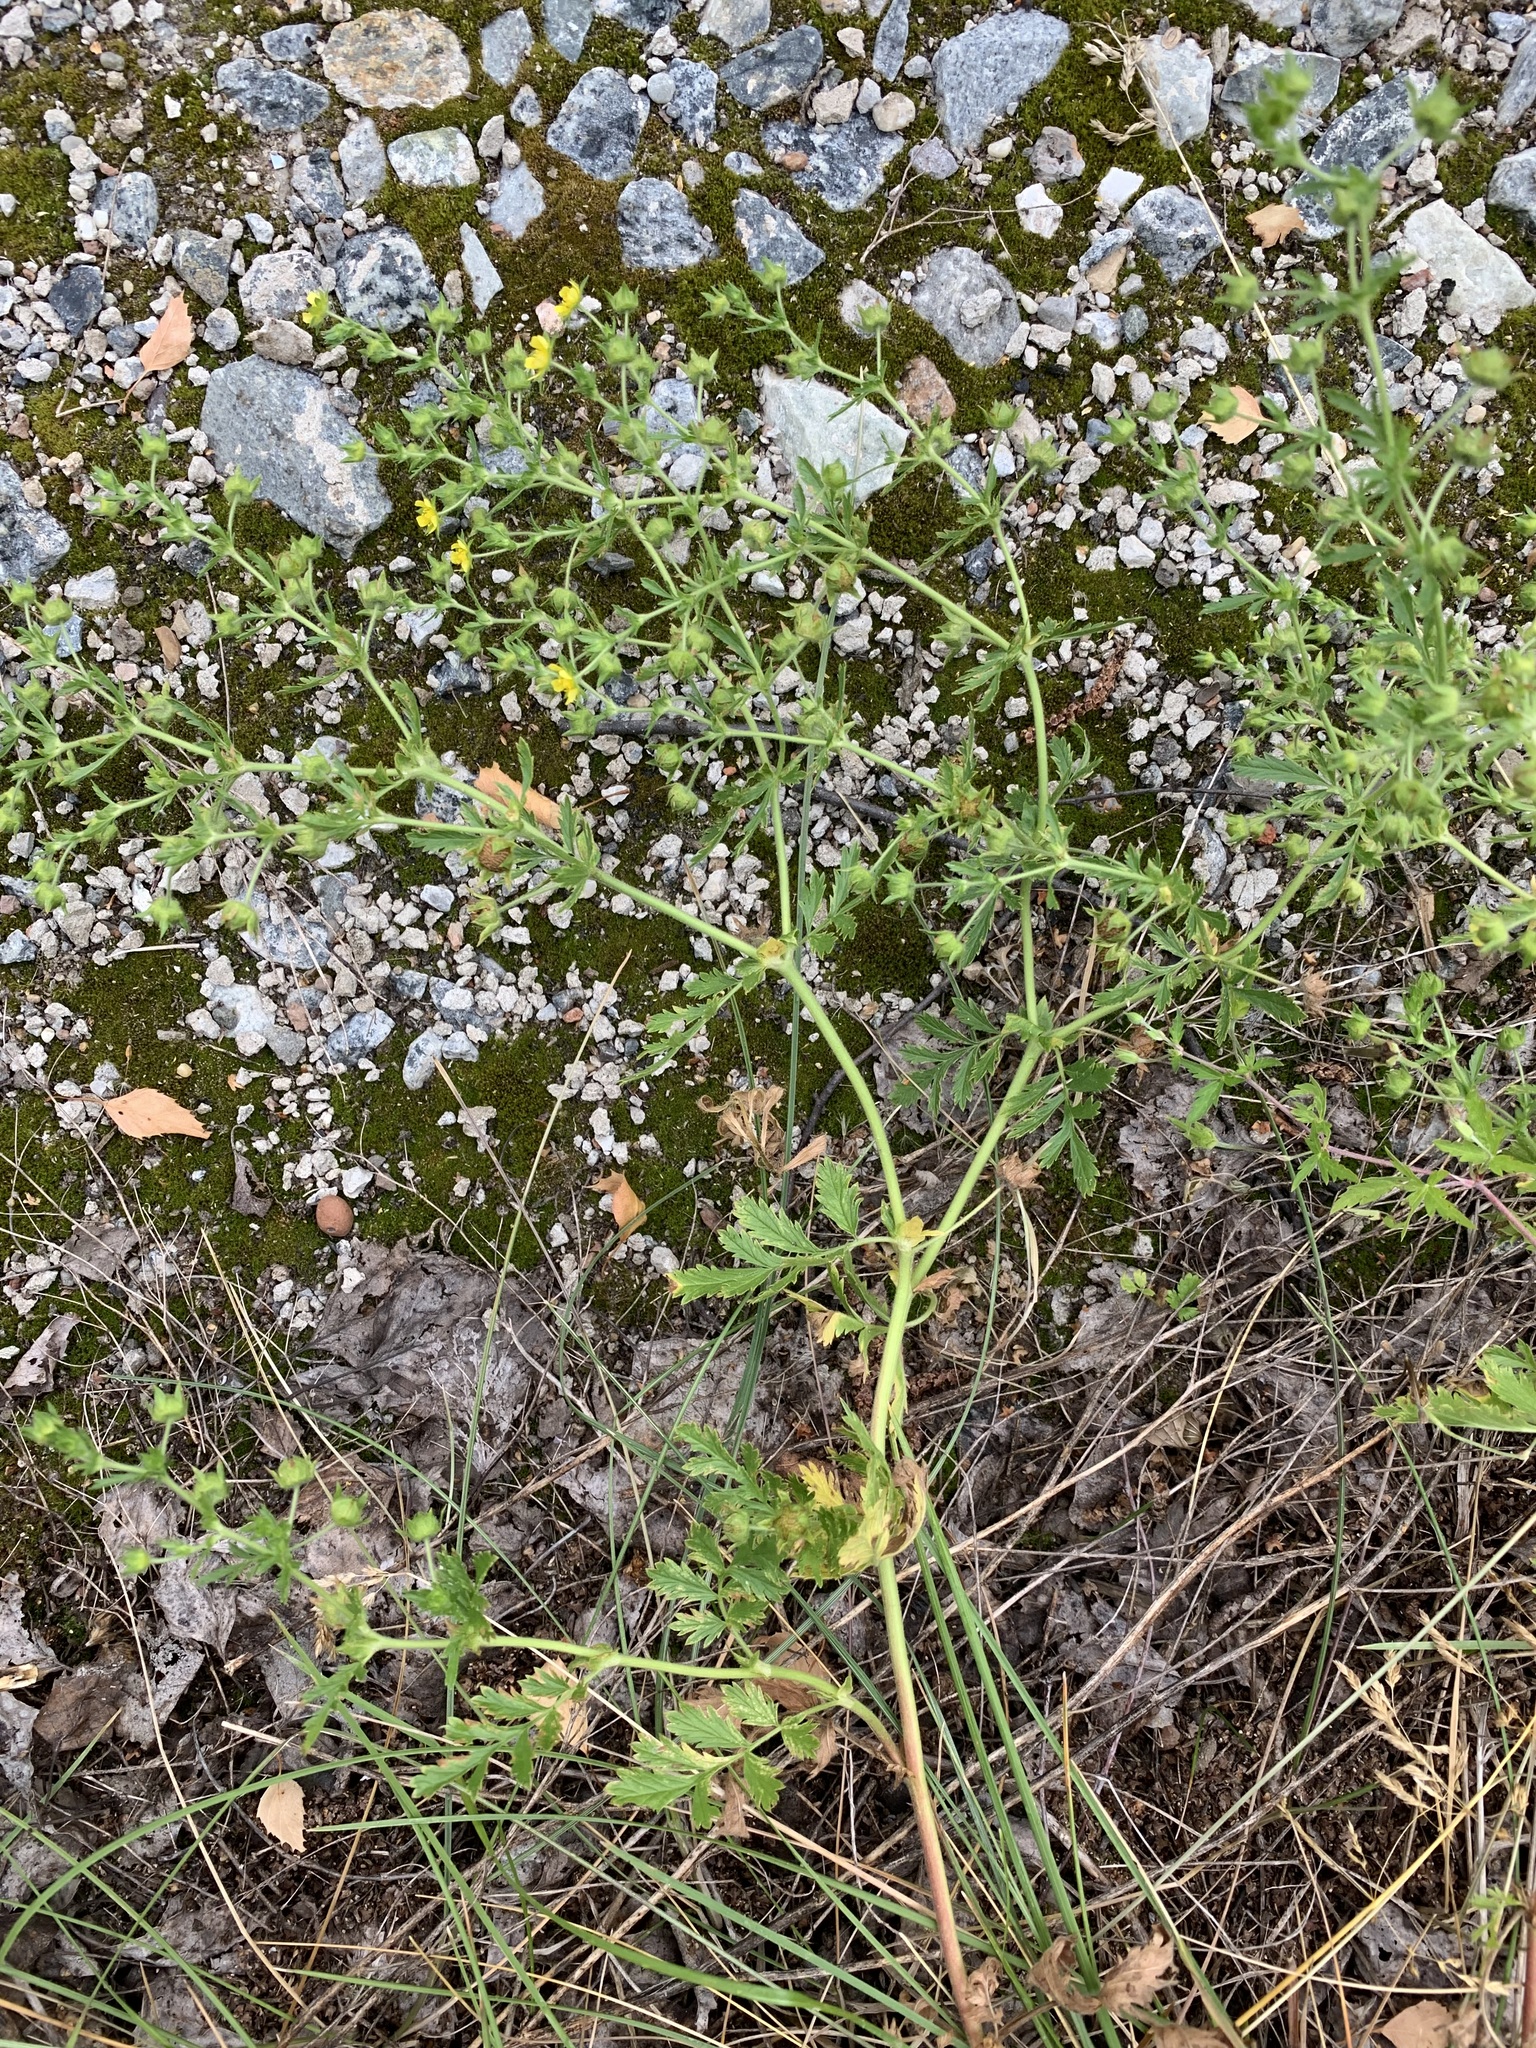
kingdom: Plantae
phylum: Tracheophyta
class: Magnoliopsida
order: Rosales
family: Rosaceae
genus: Potentilla
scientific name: Potentilla supina
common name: Prostrate cinquefoil
